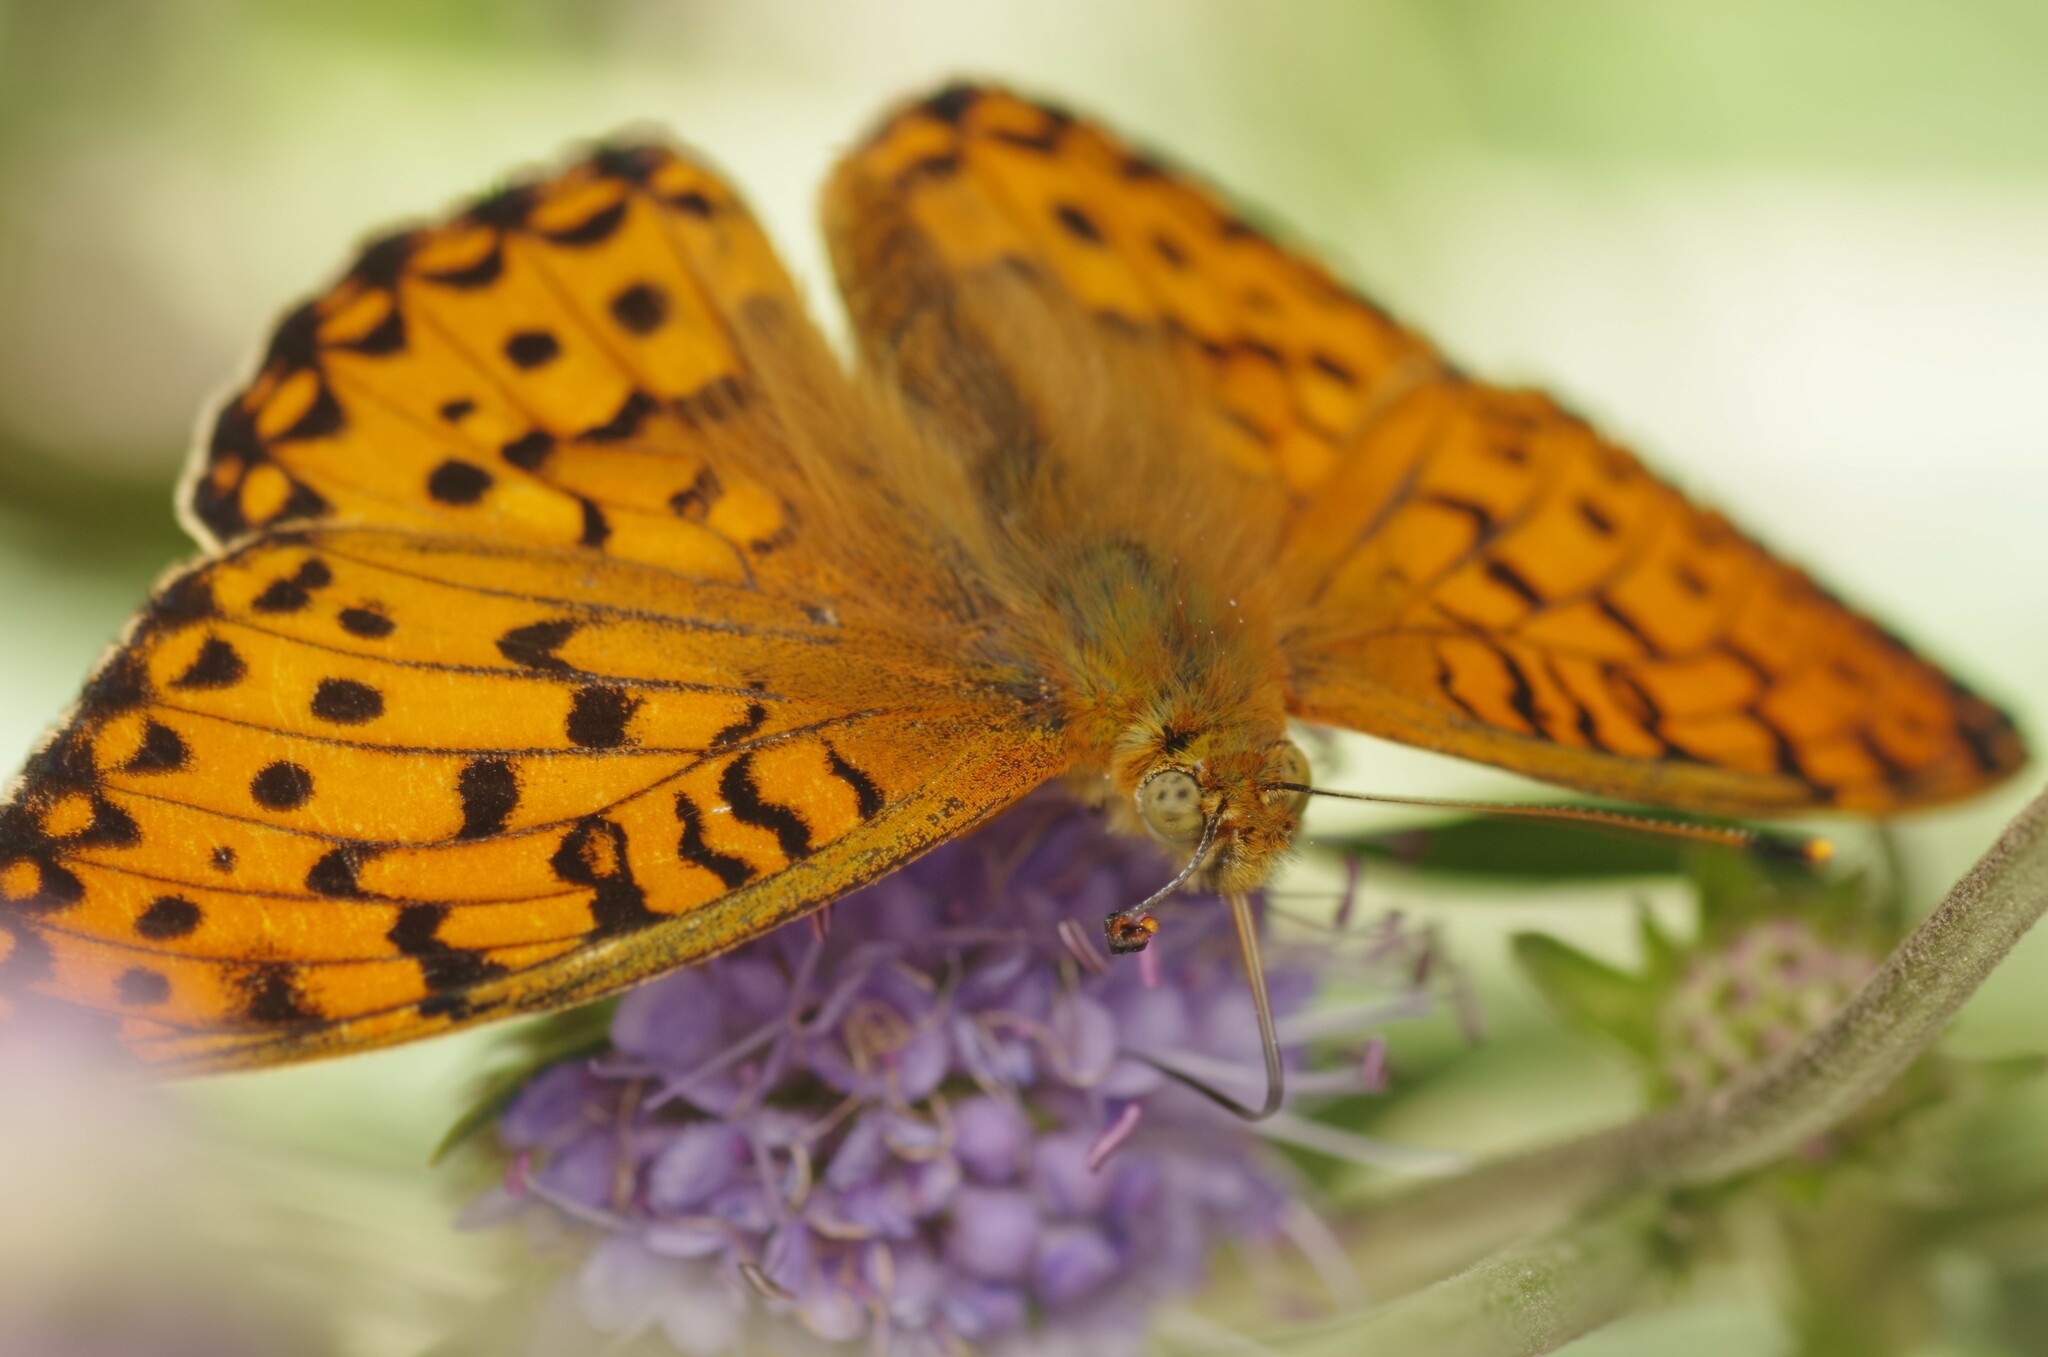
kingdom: Animalia
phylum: Arthropoda
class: Insecta
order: Lepidoptera
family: Nymphalidae
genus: Speyeria
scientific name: Speyeria aglaja
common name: Dark green fritillary
